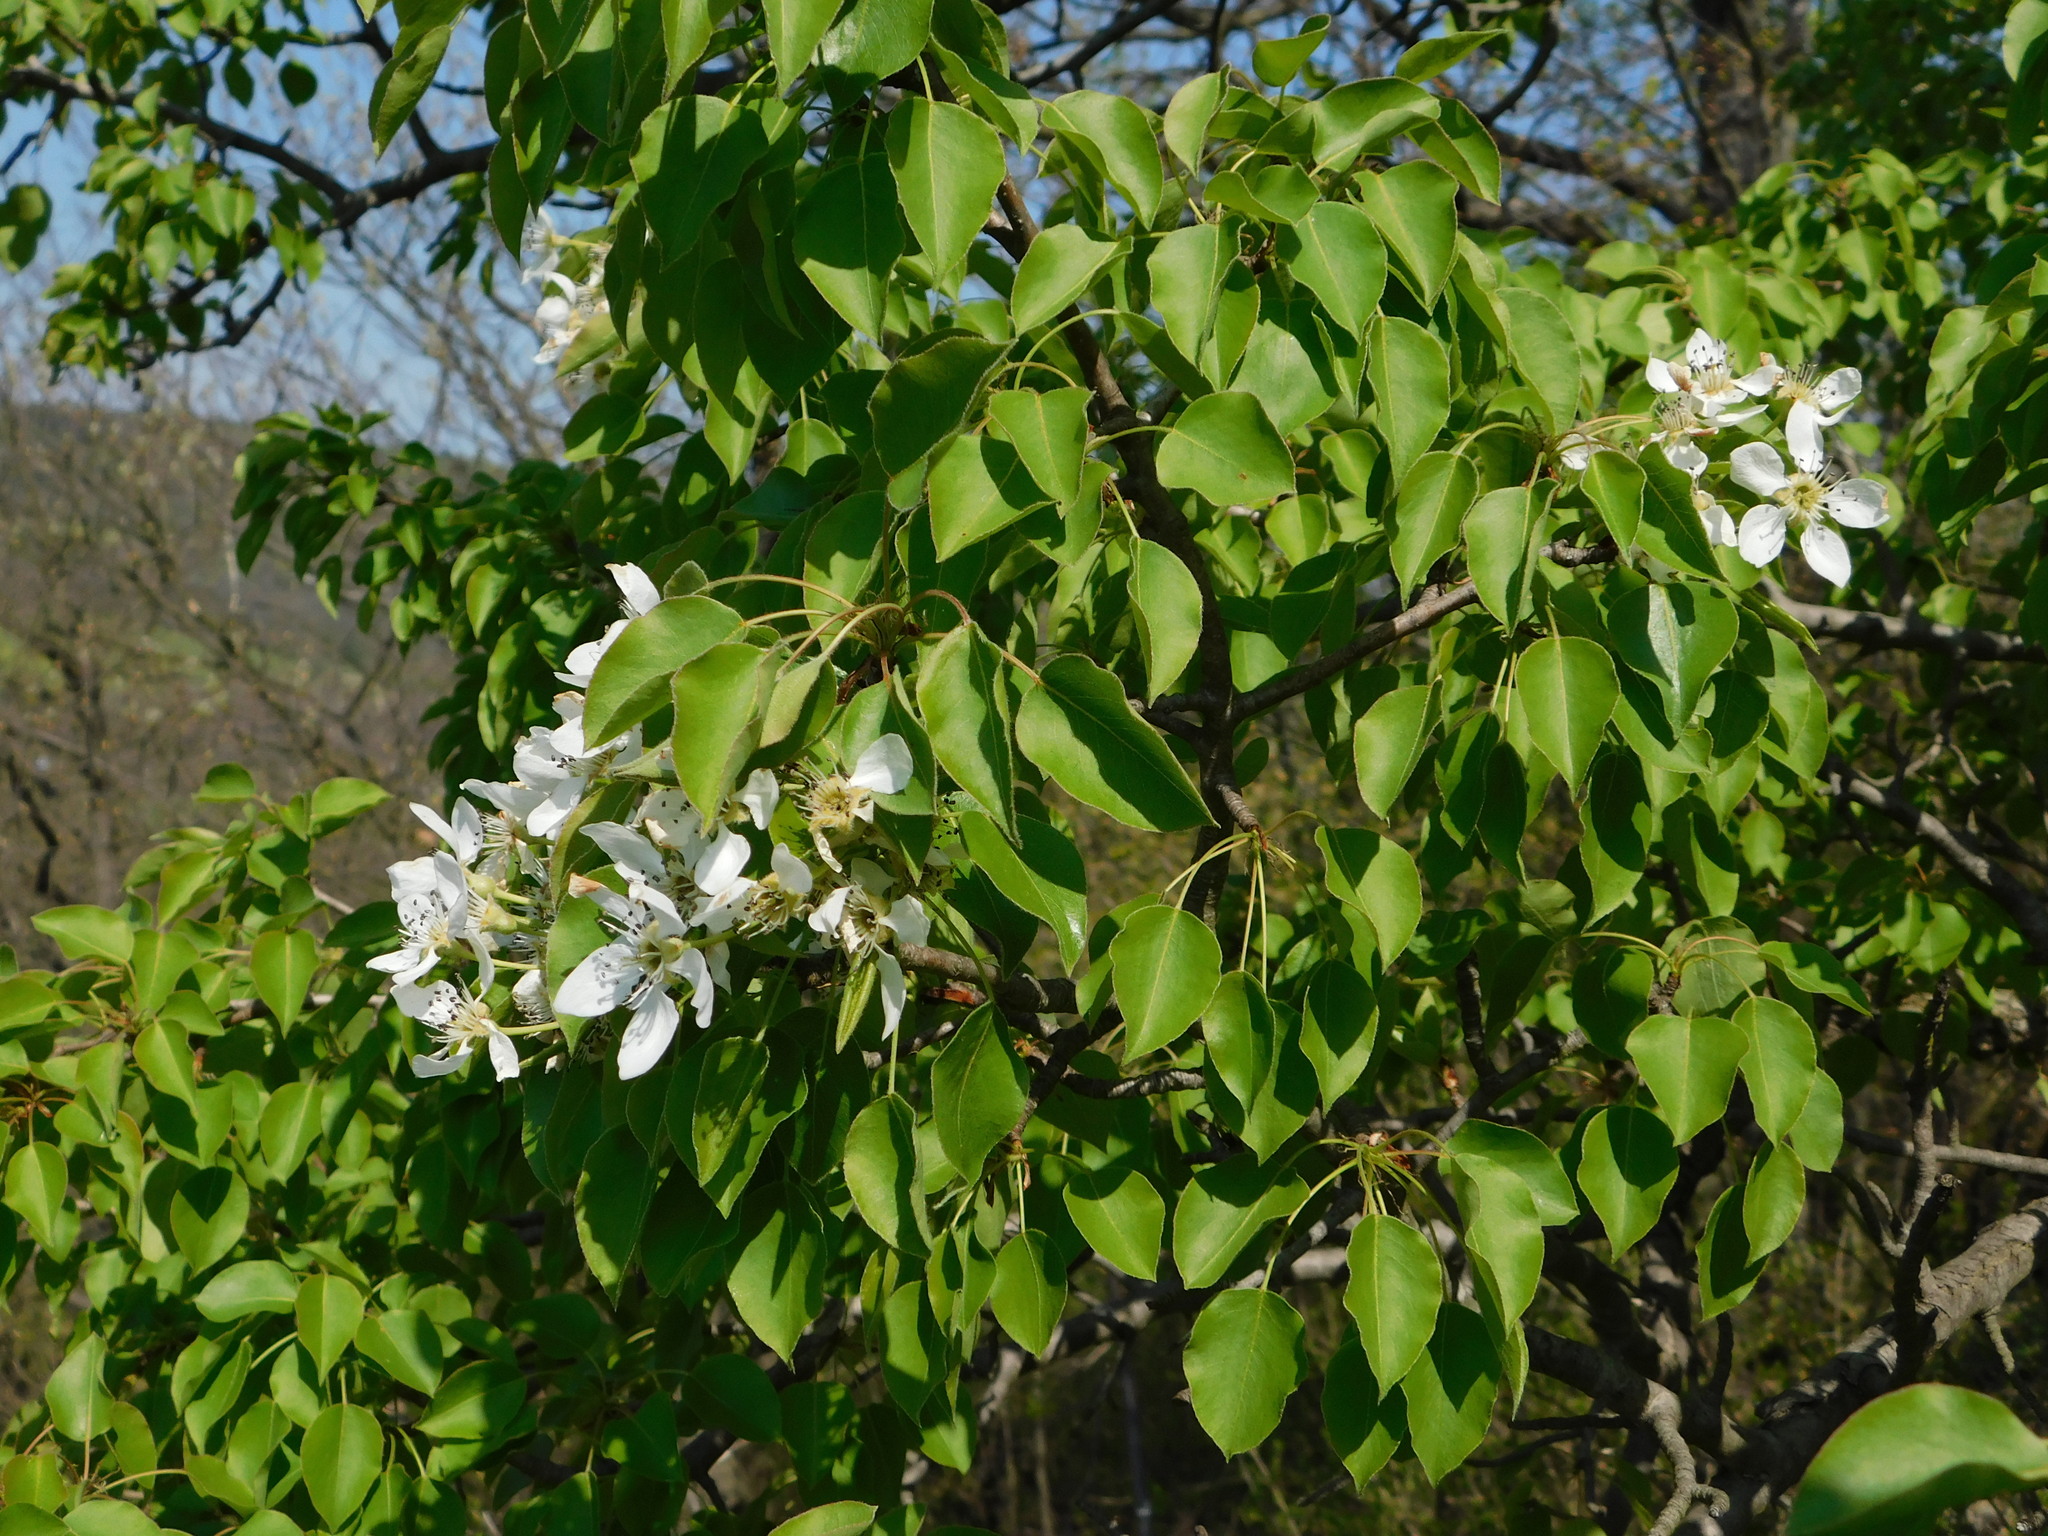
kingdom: Plantae
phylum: Tracheophyta
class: Magnoliopsida
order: Rosales
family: Rosaceae
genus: Pyrus
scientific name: Pyrus communis
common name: Pear
